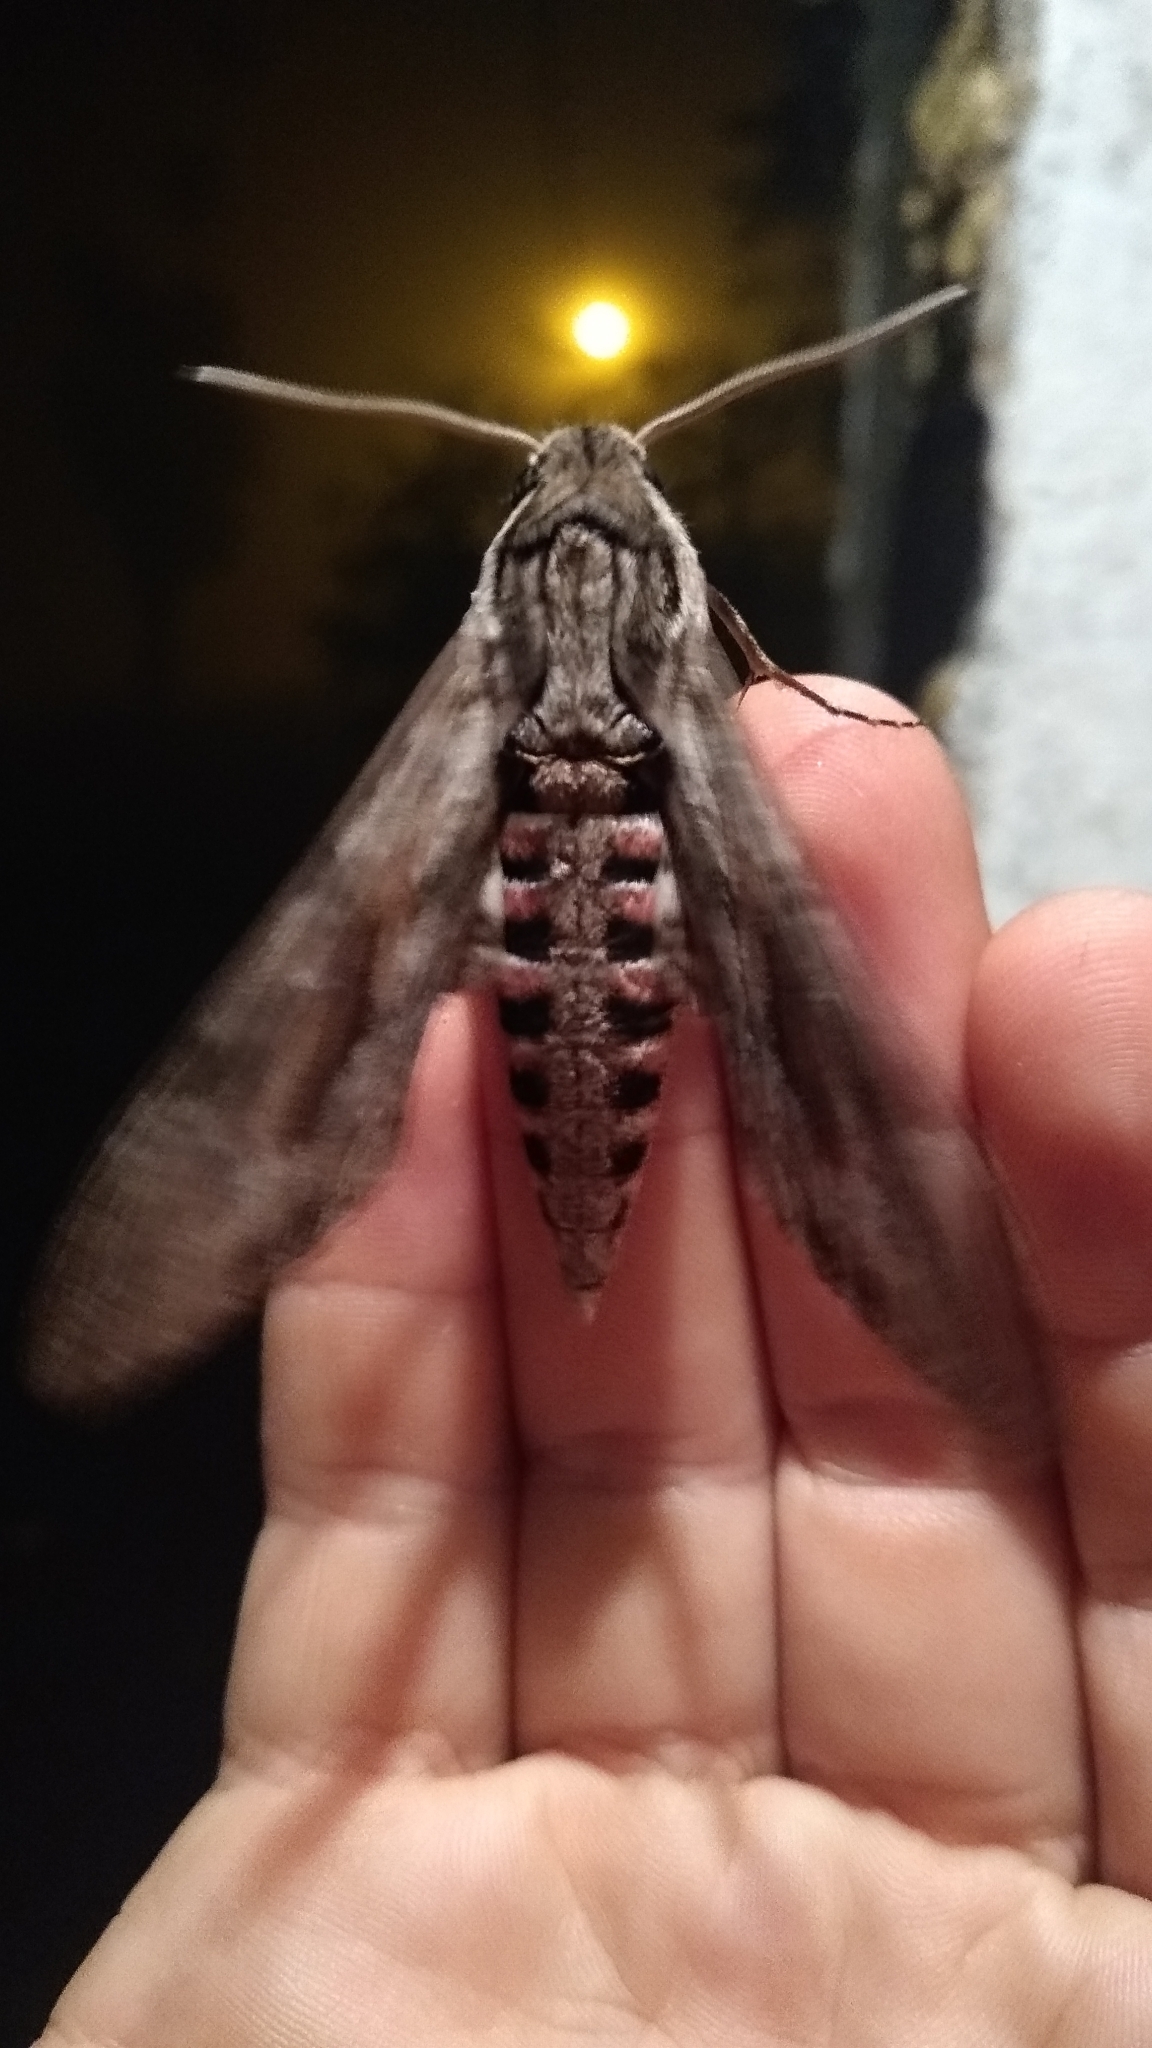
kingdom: Animalia
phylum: Arthropoda
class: Insecta
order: Lepidoptera
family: Sphingidae
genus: Agrius
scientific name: Agrius convolvuli
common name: Convolvulus hawkmoth
